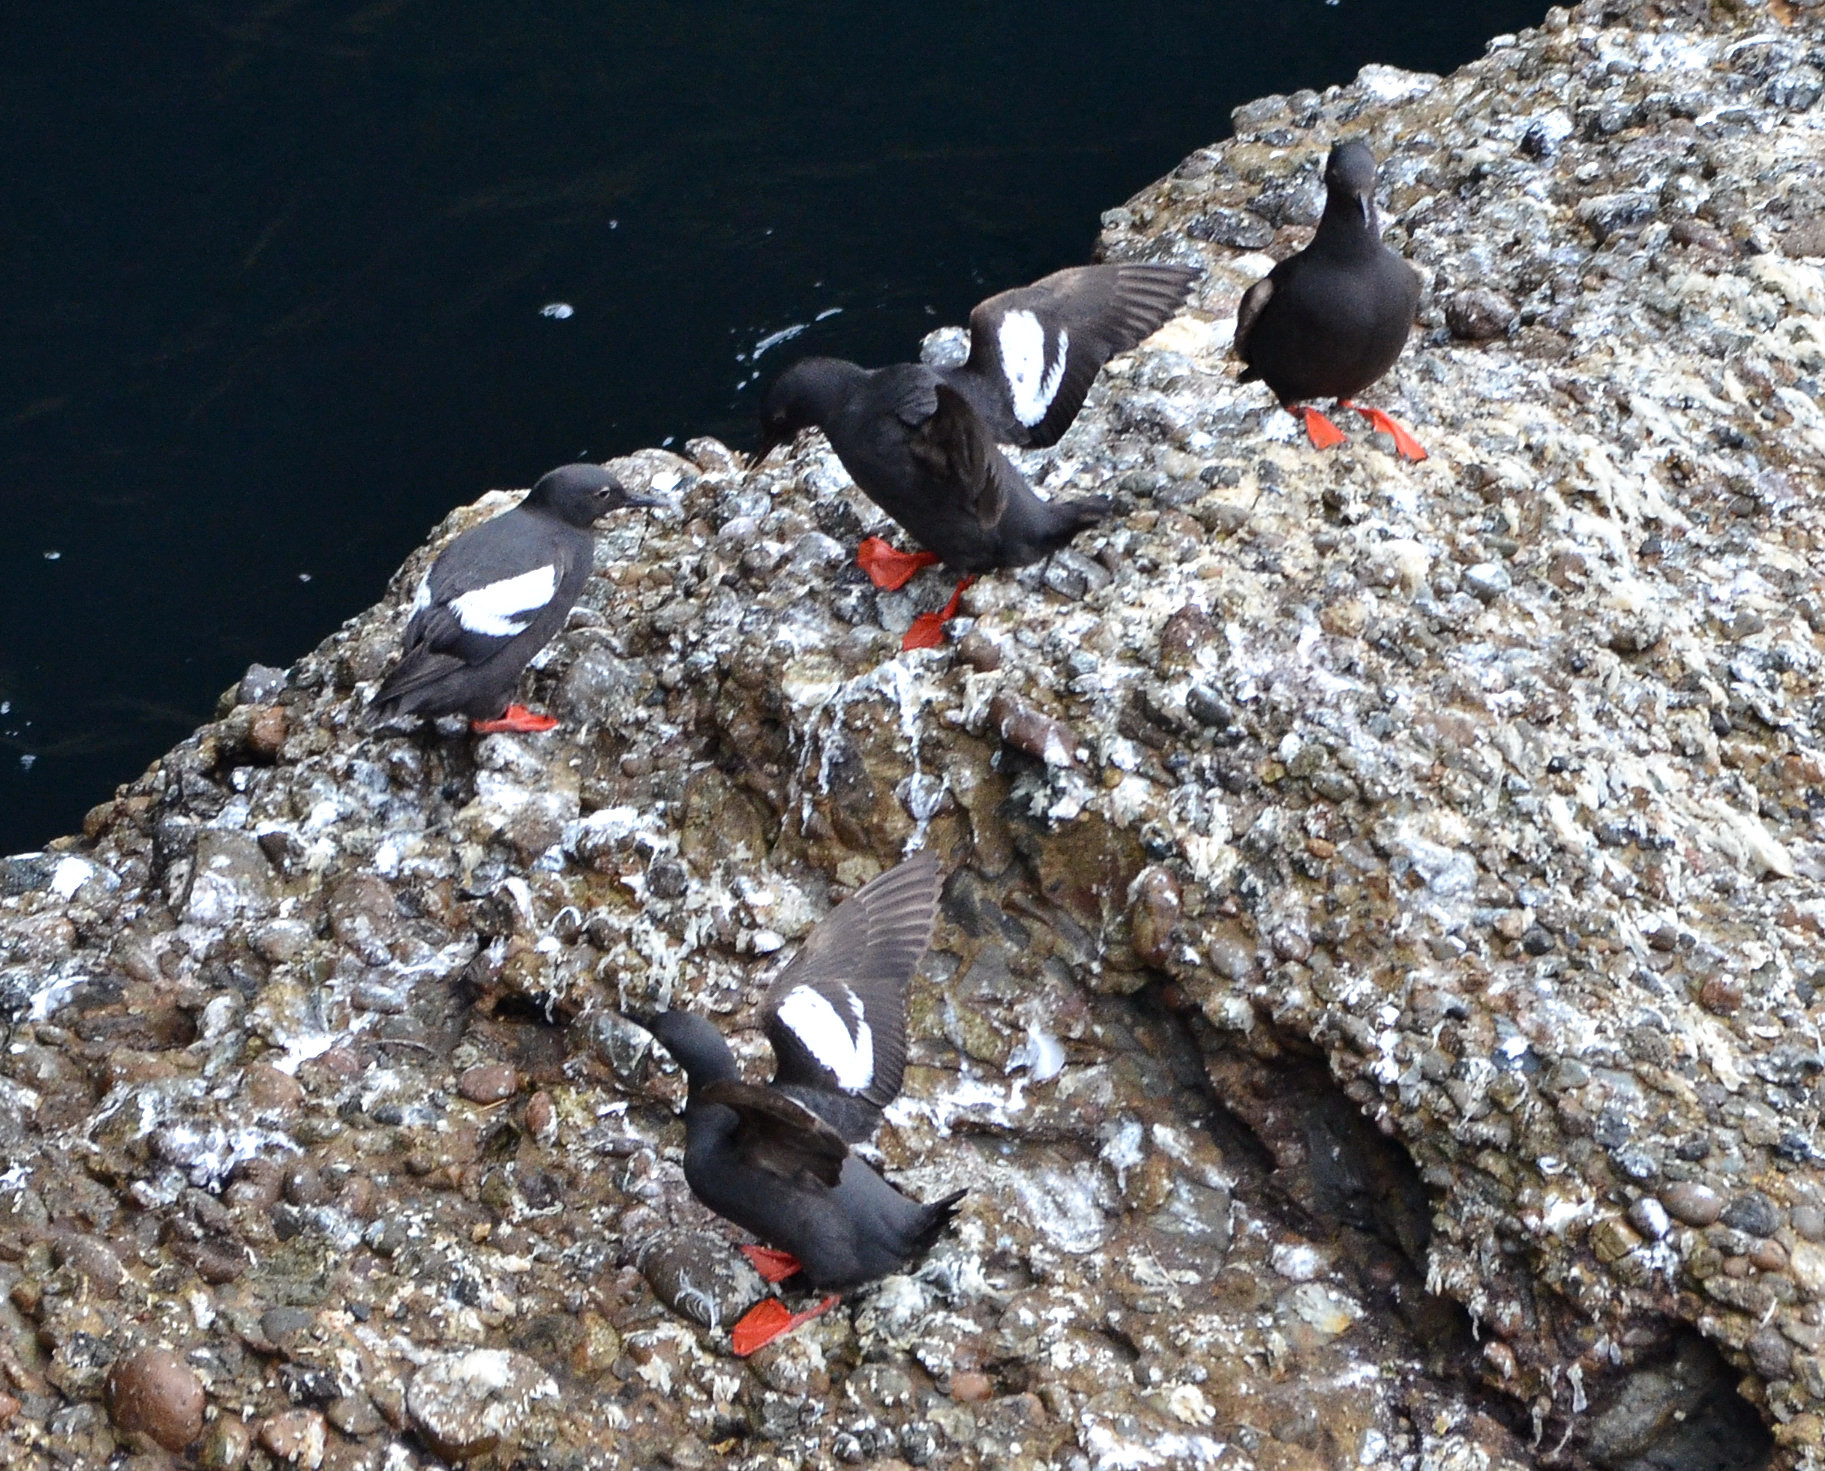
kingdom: Animalia
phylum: Chordata
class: Aves
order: Charadriiformes
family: Alcidae
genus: Cepphus
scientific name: Cepphus columba
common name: Pigeon guillemot
